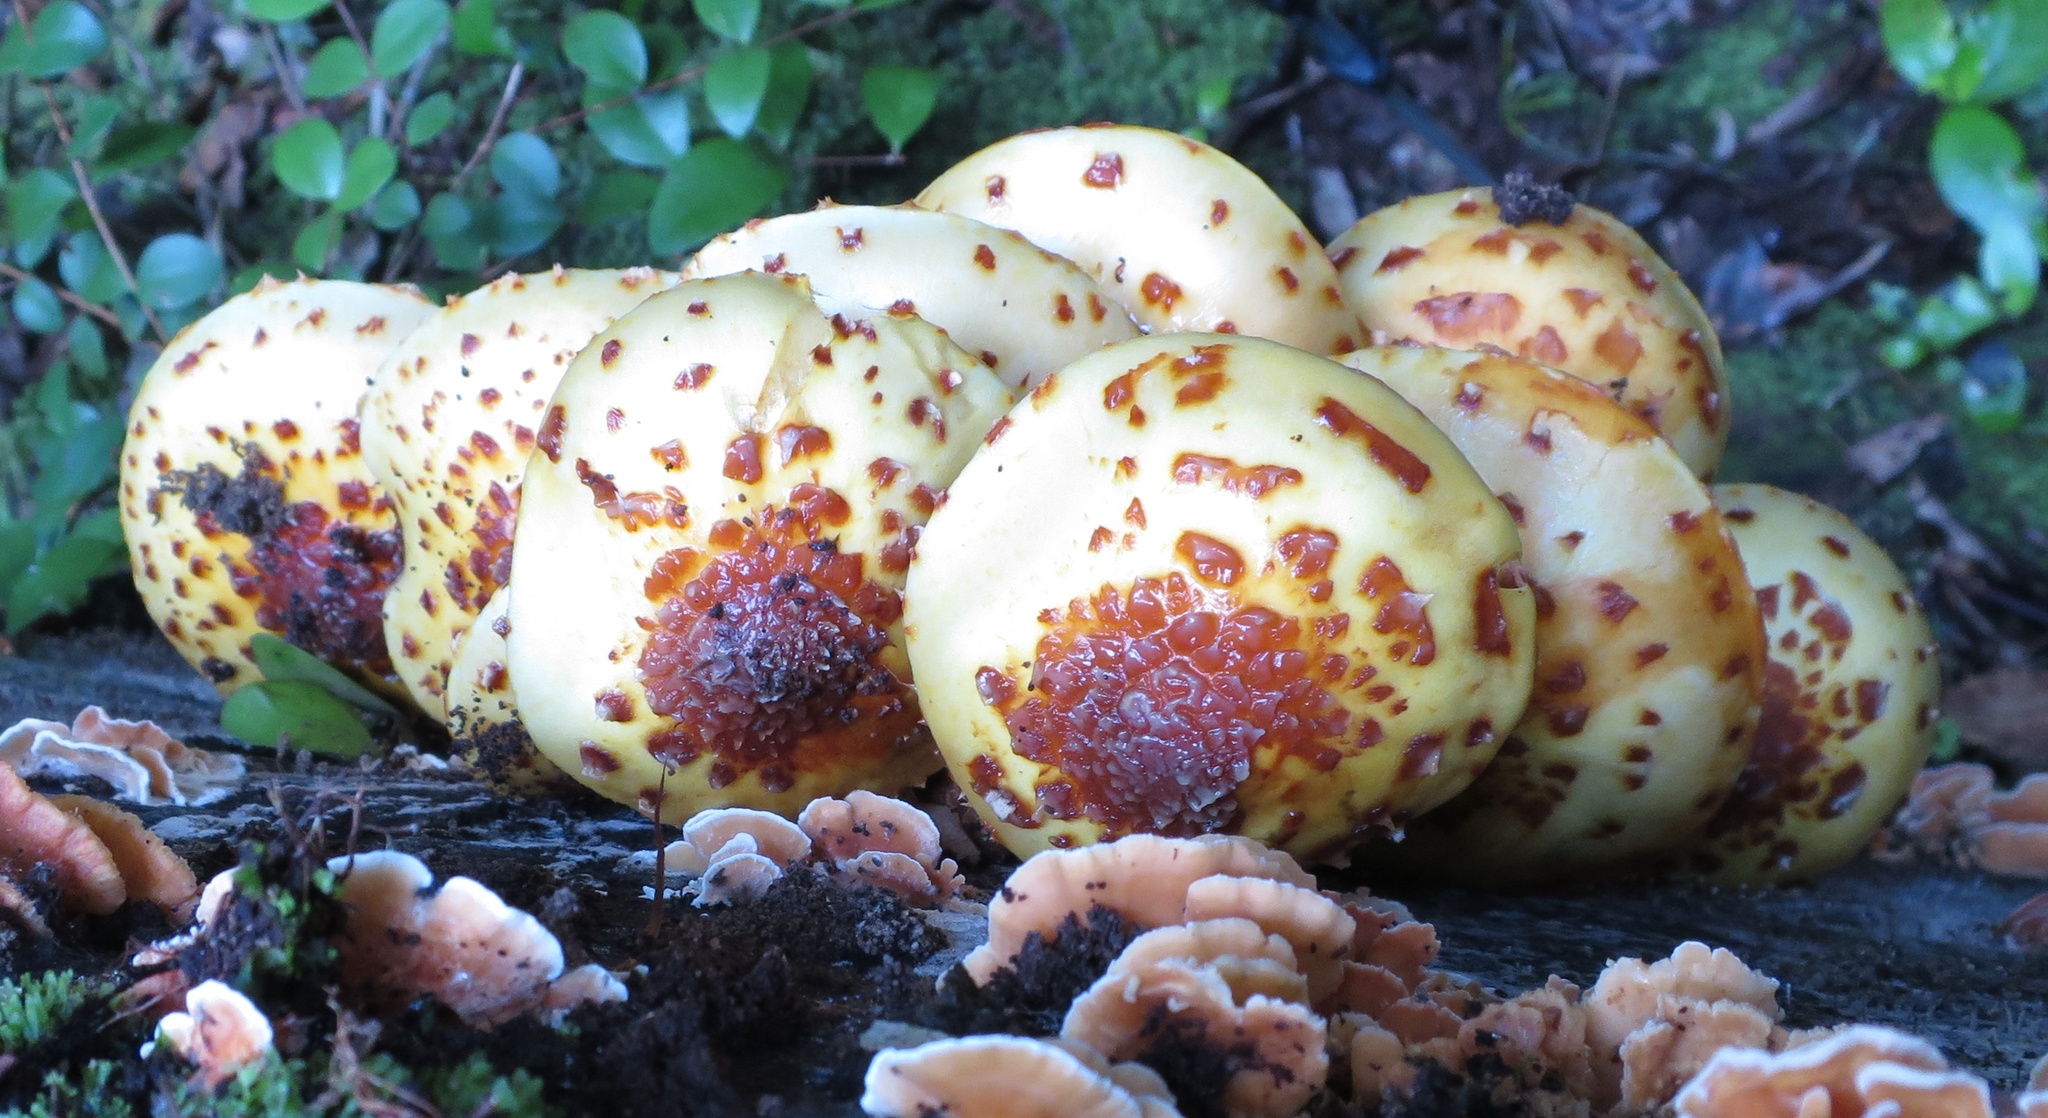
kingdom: Fungi
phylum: Basidiomycota
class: Agaricomycetes
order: Agaricales
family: Strophariaceae
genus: Pholiota
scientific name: Pholiota glutinosa
